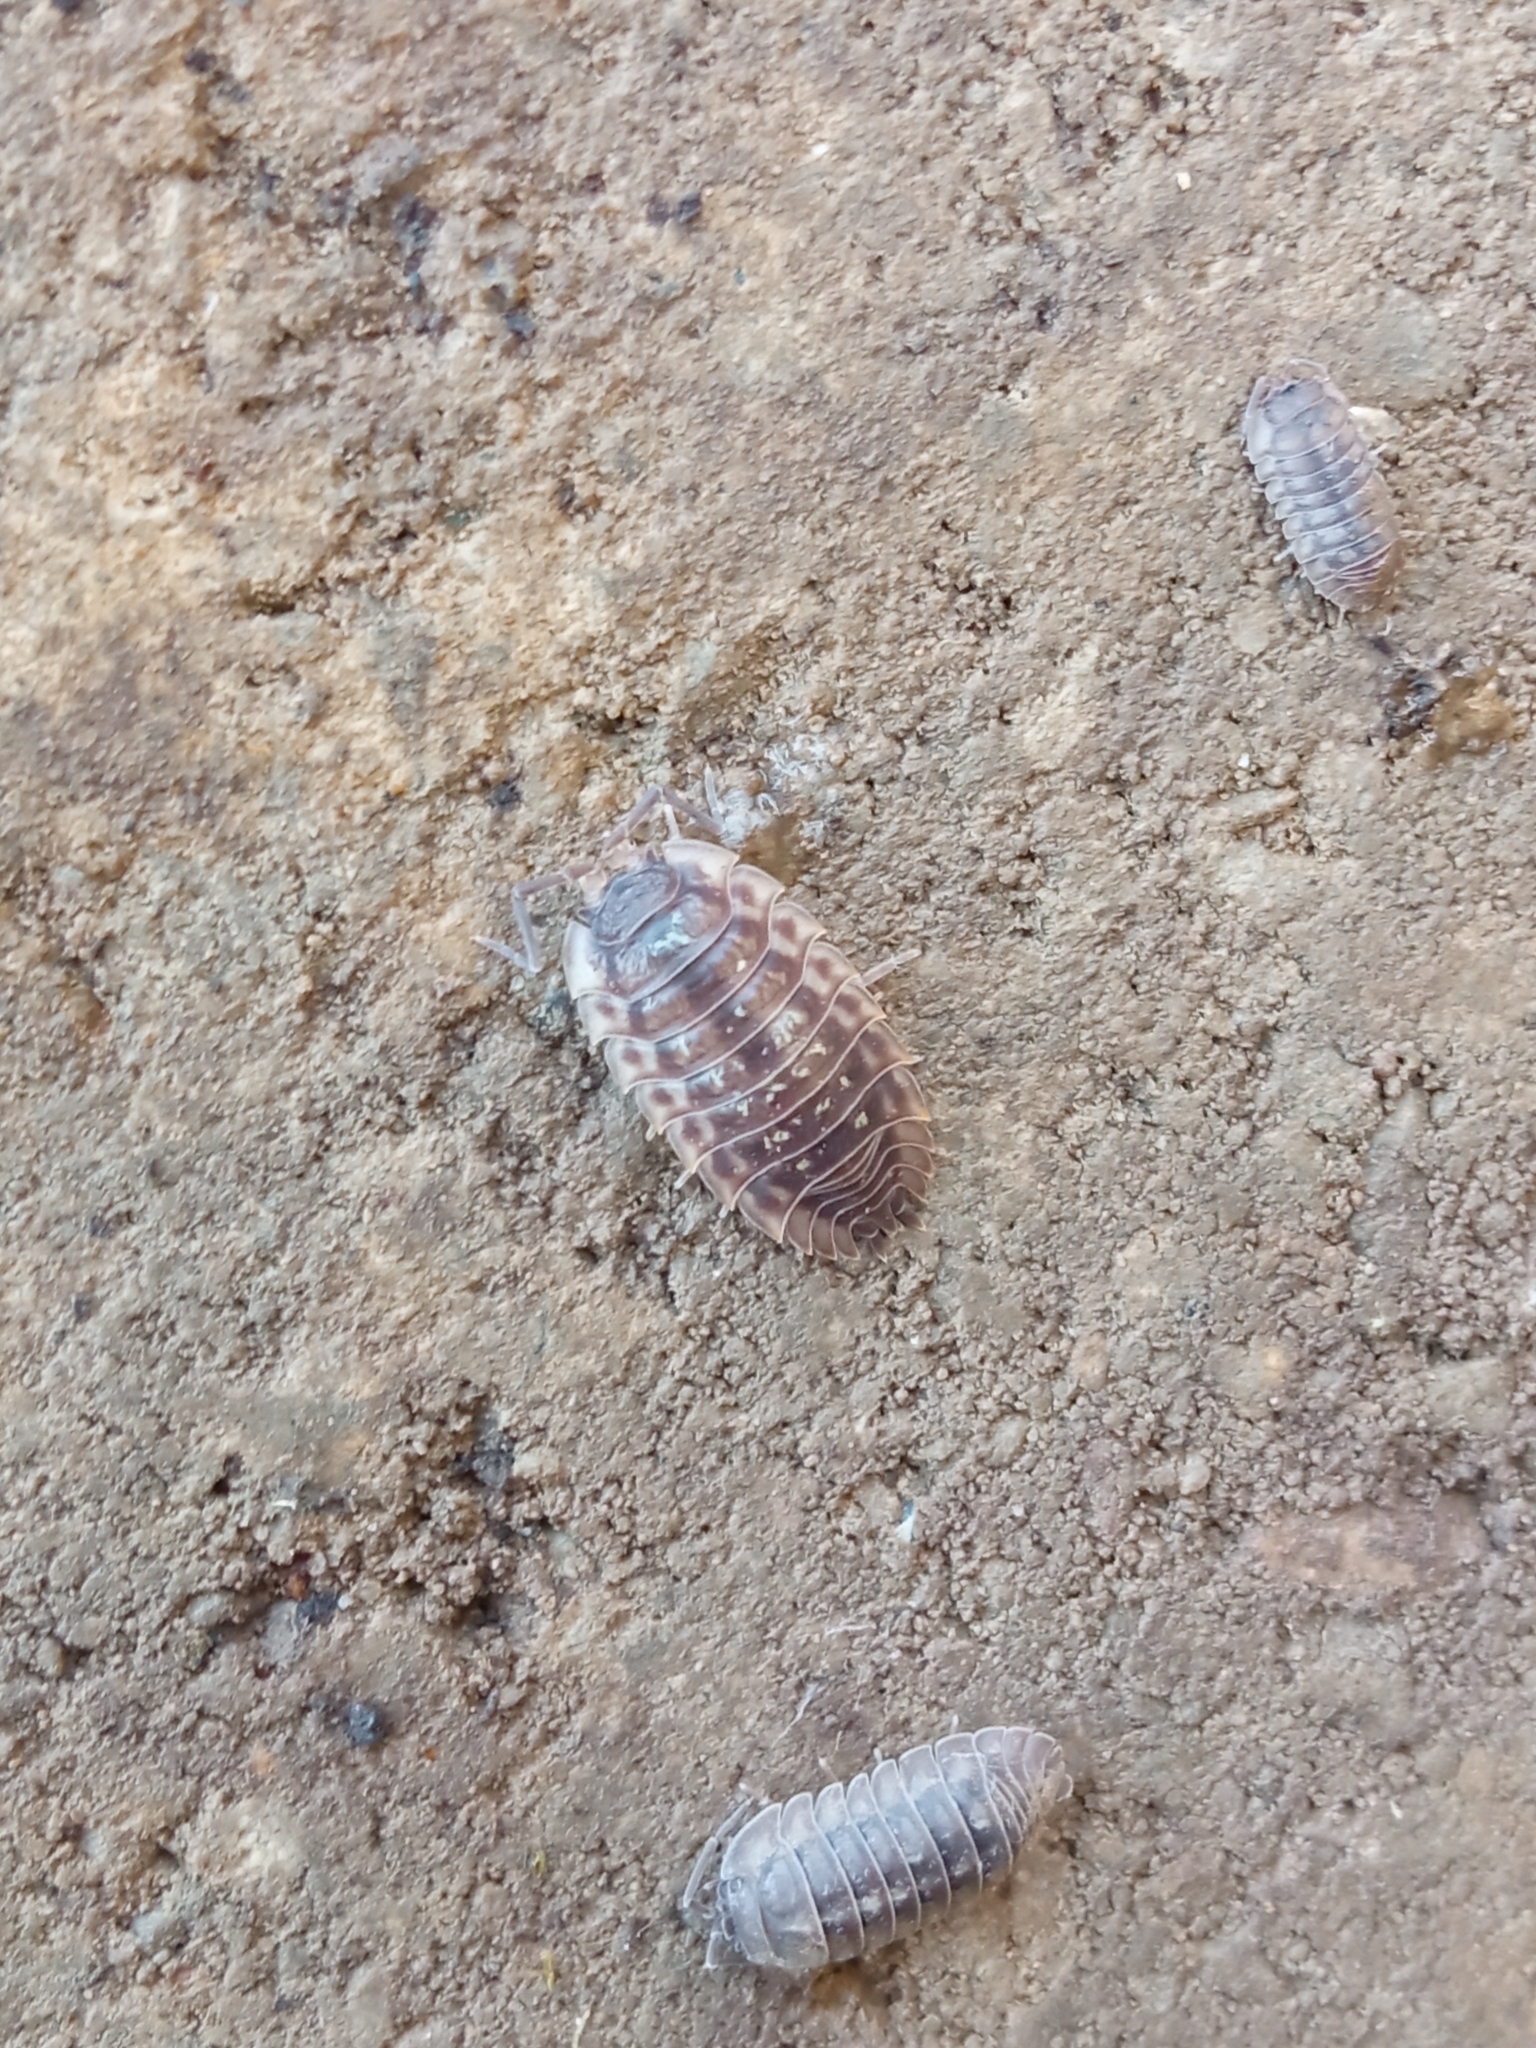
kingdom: Animalia
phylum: Arthropoda
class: Malacostraca
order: Isopoda
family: Oniscidae
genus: Oniscus
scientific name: Oniscus asellus
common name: Common shiny woodlouse
